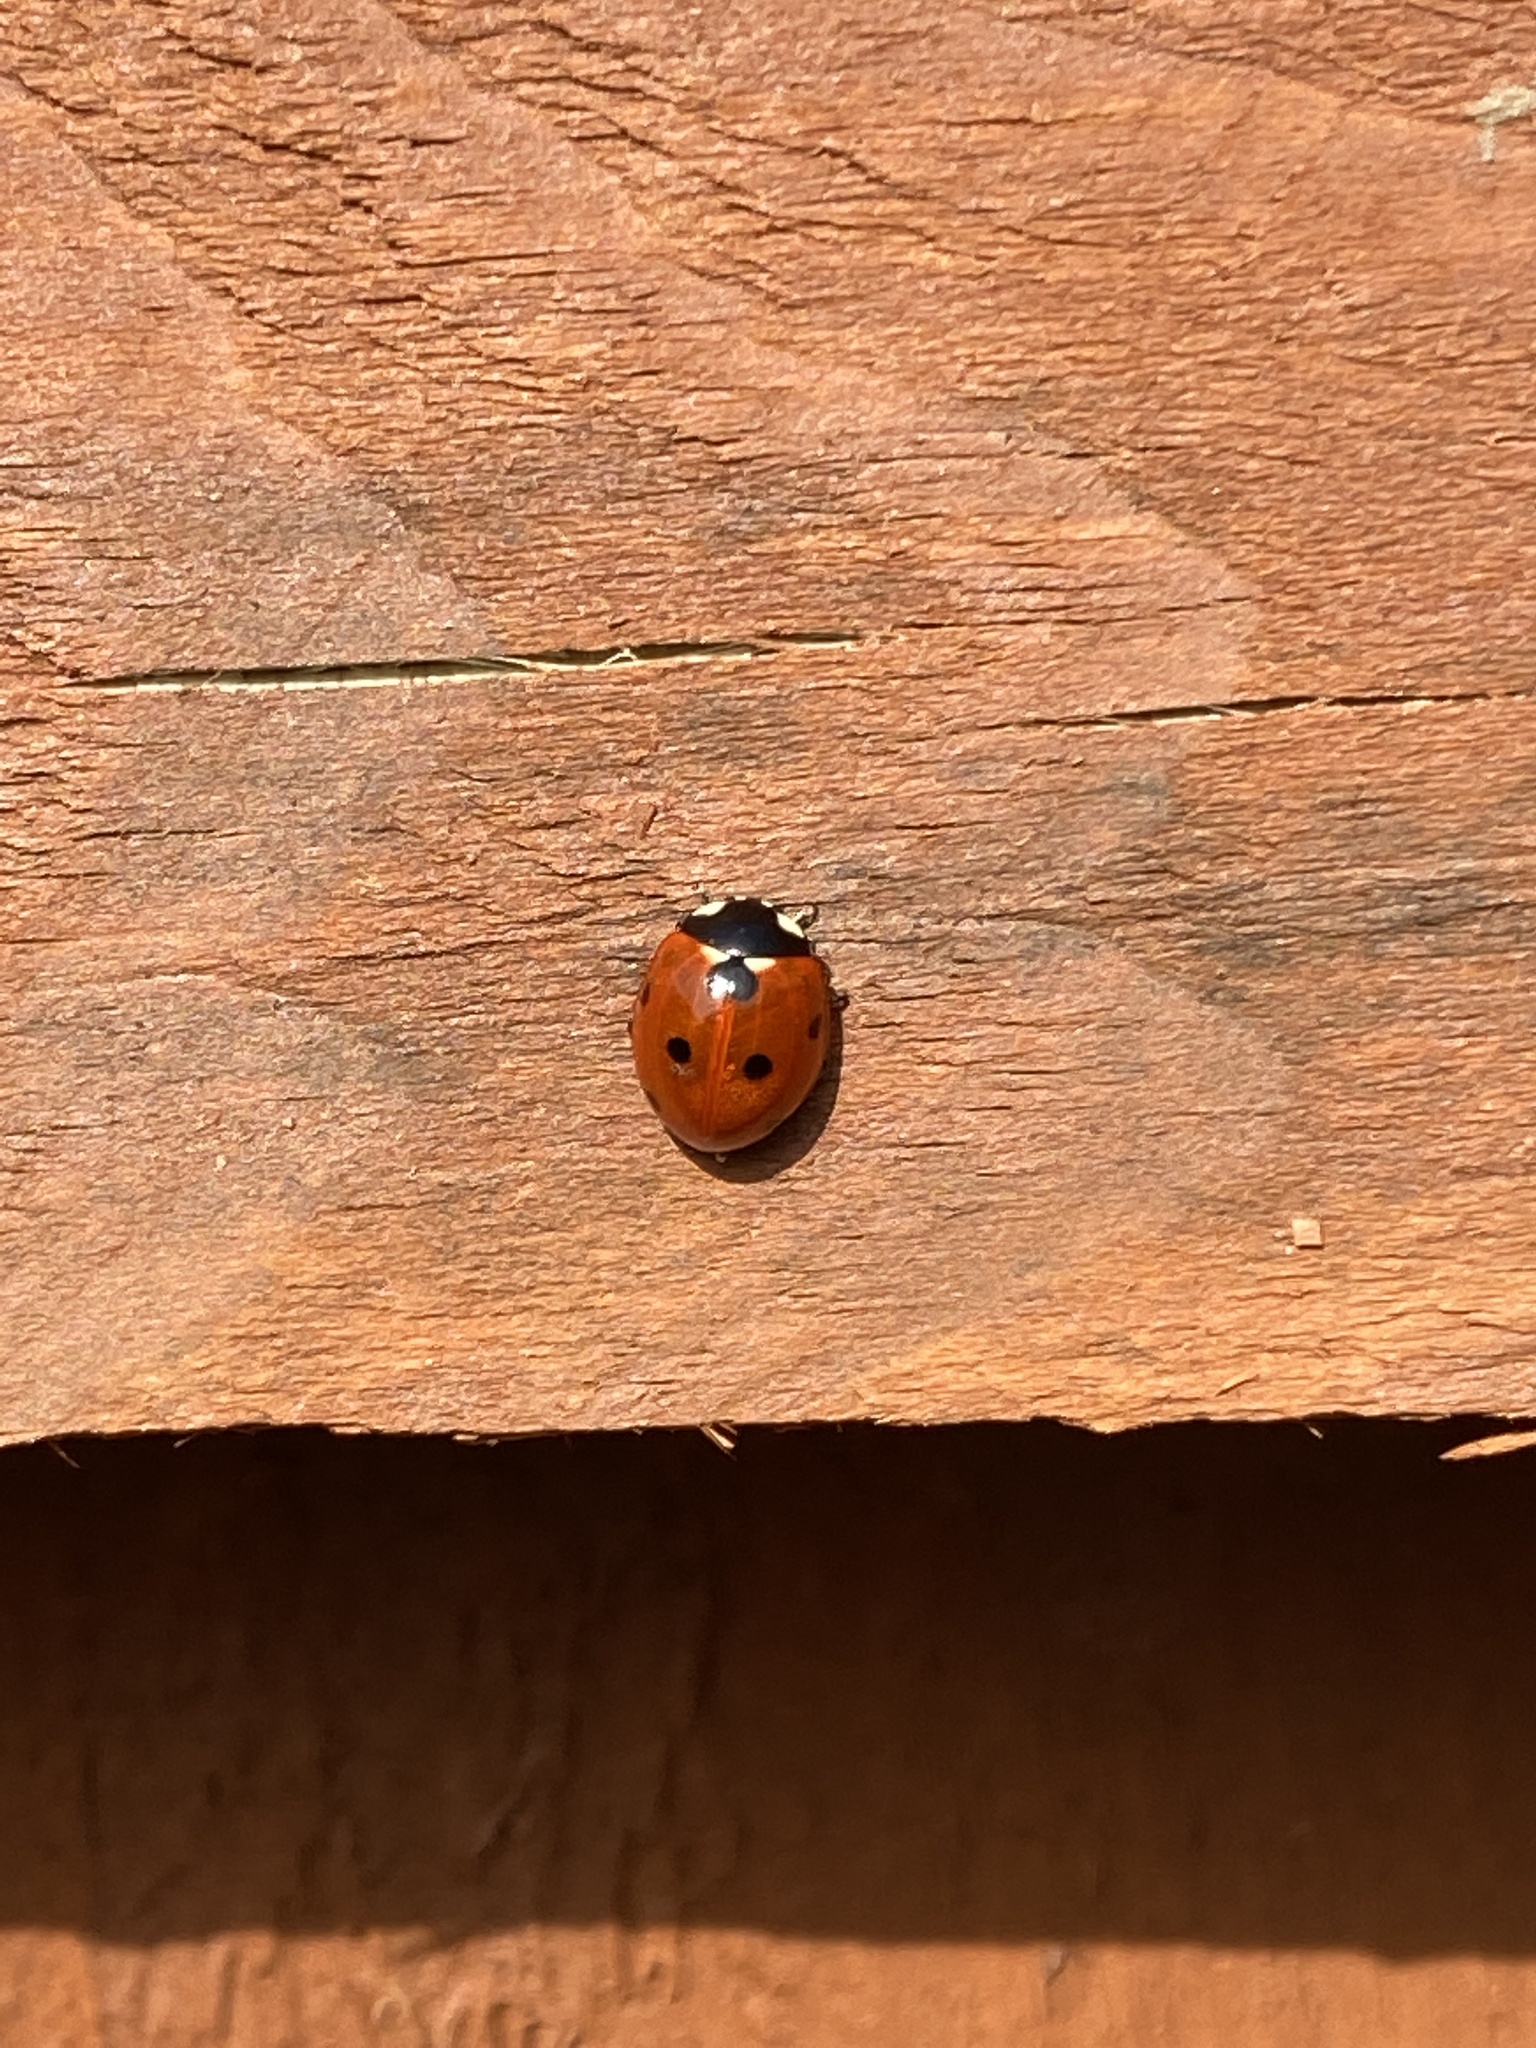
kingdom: Animalia
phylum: Arthropoda
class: Insecta
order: Coleoptera
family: Coccinellidae
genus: Coccinella
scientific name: Coccinella septempunctata
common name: Sevenspotted lady beetle
